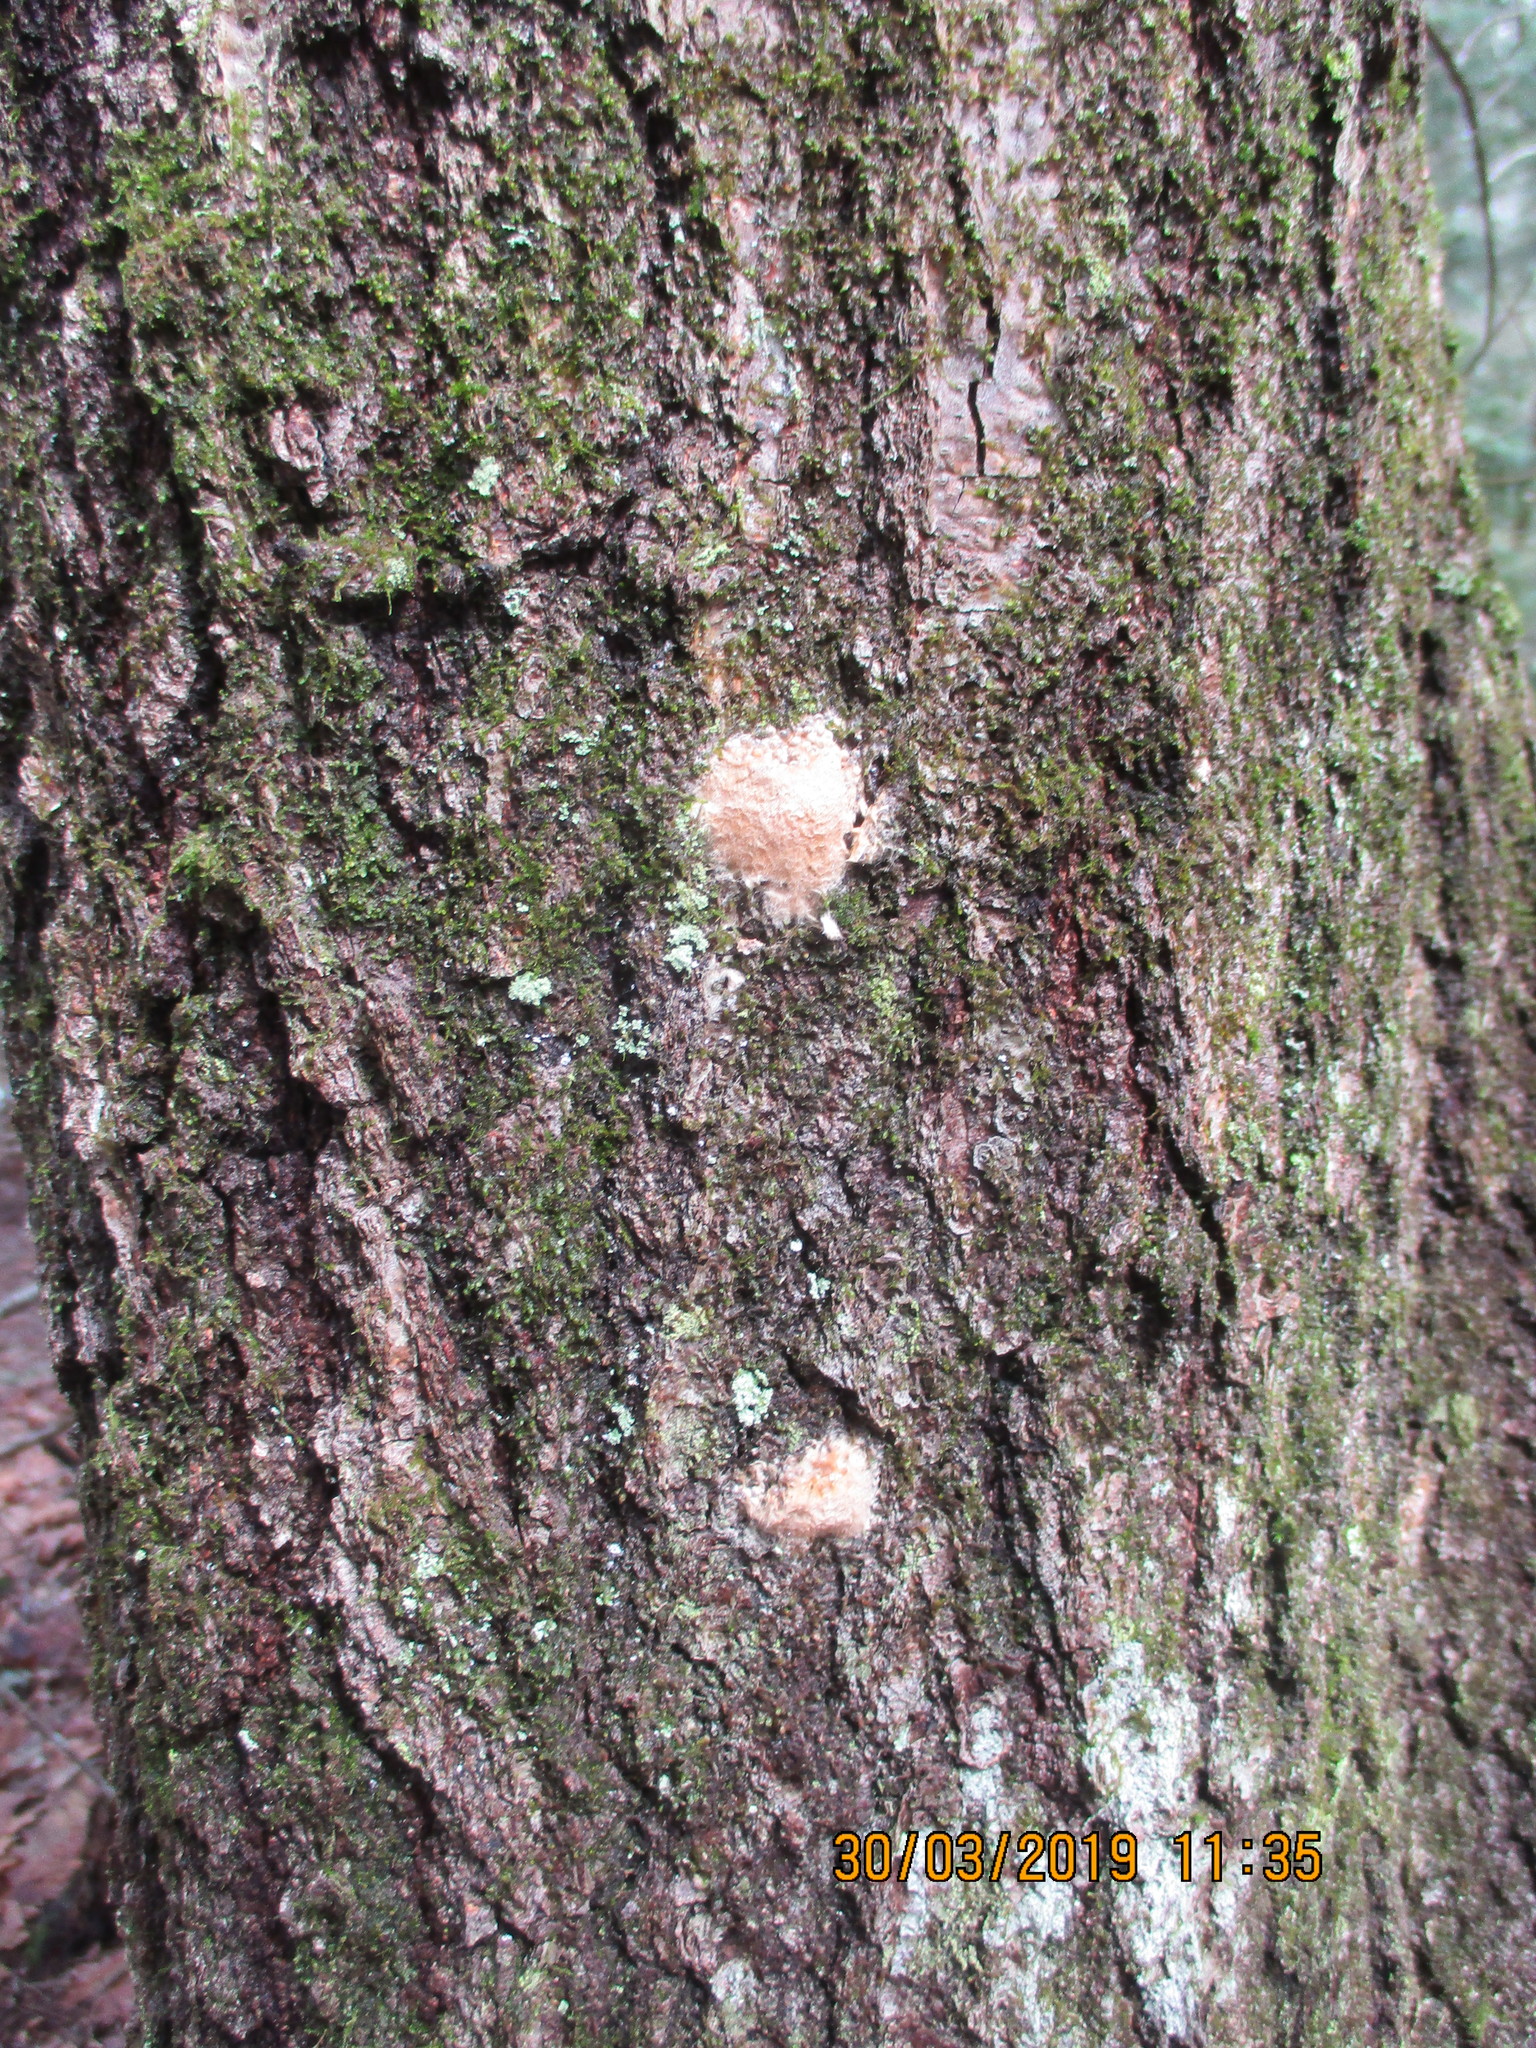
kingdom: Animalia
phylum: Arthropoda
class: Insecta
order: Lepidoptera
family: Erebidae
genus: Lymantria
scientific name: Lymantria dispar
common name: Gypsy moth
